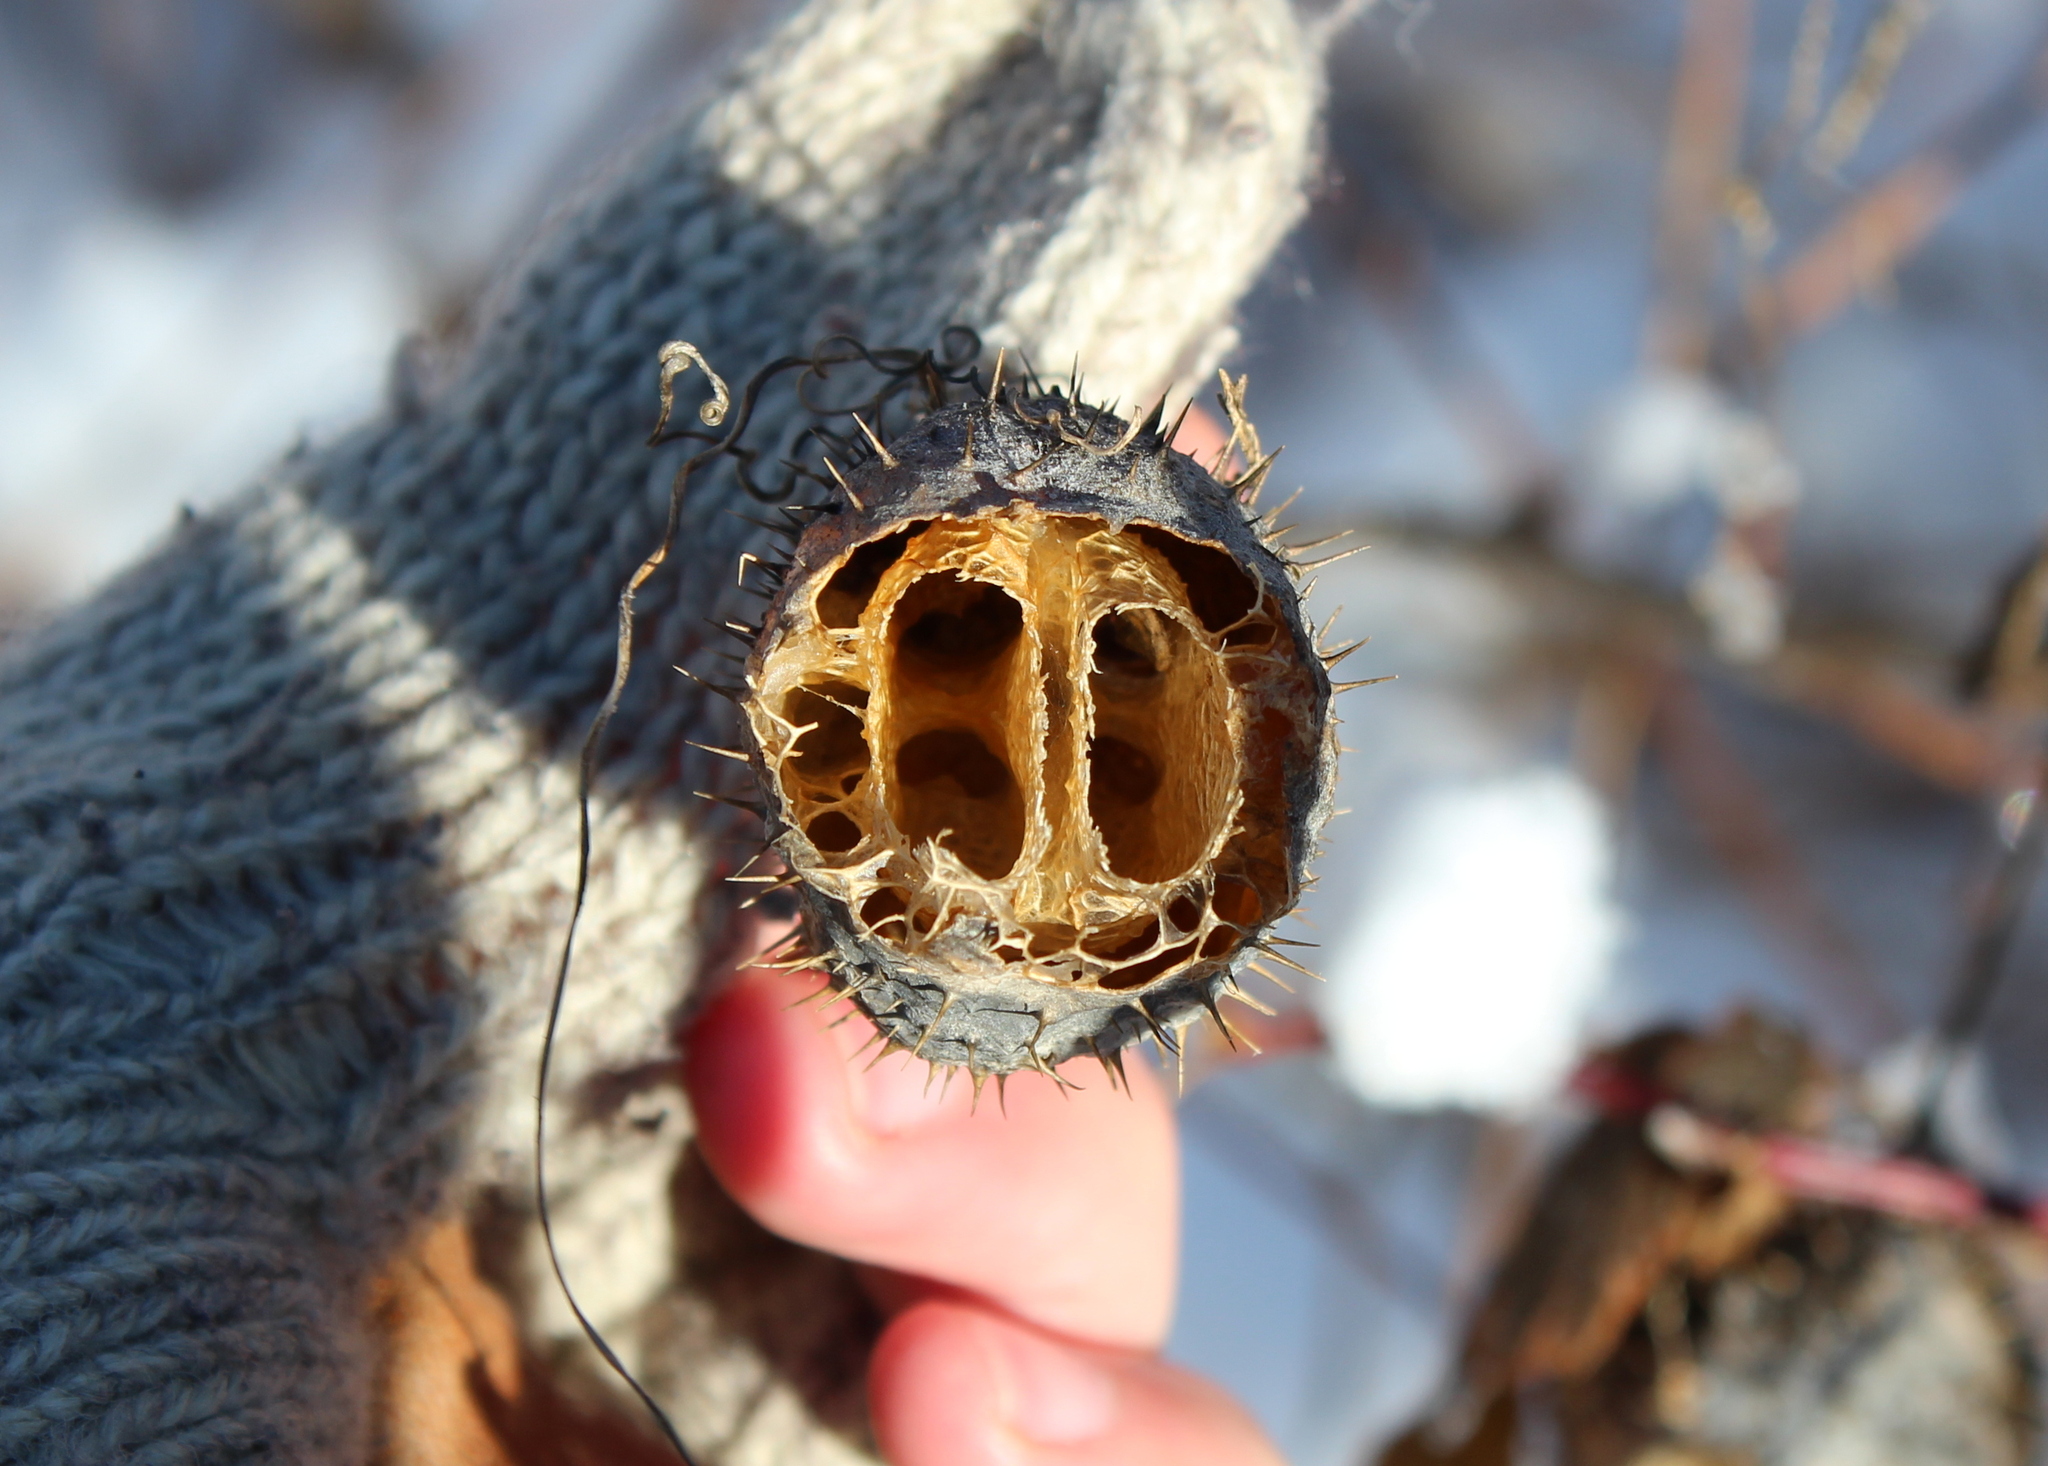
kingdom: Plantae
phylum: Tracheophyta
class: Magnoliopsida
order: Cucurbitales
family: Cucurbitaceae
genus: Echinocystis
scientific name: Echinocystis lobata
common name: Wild cucumber
